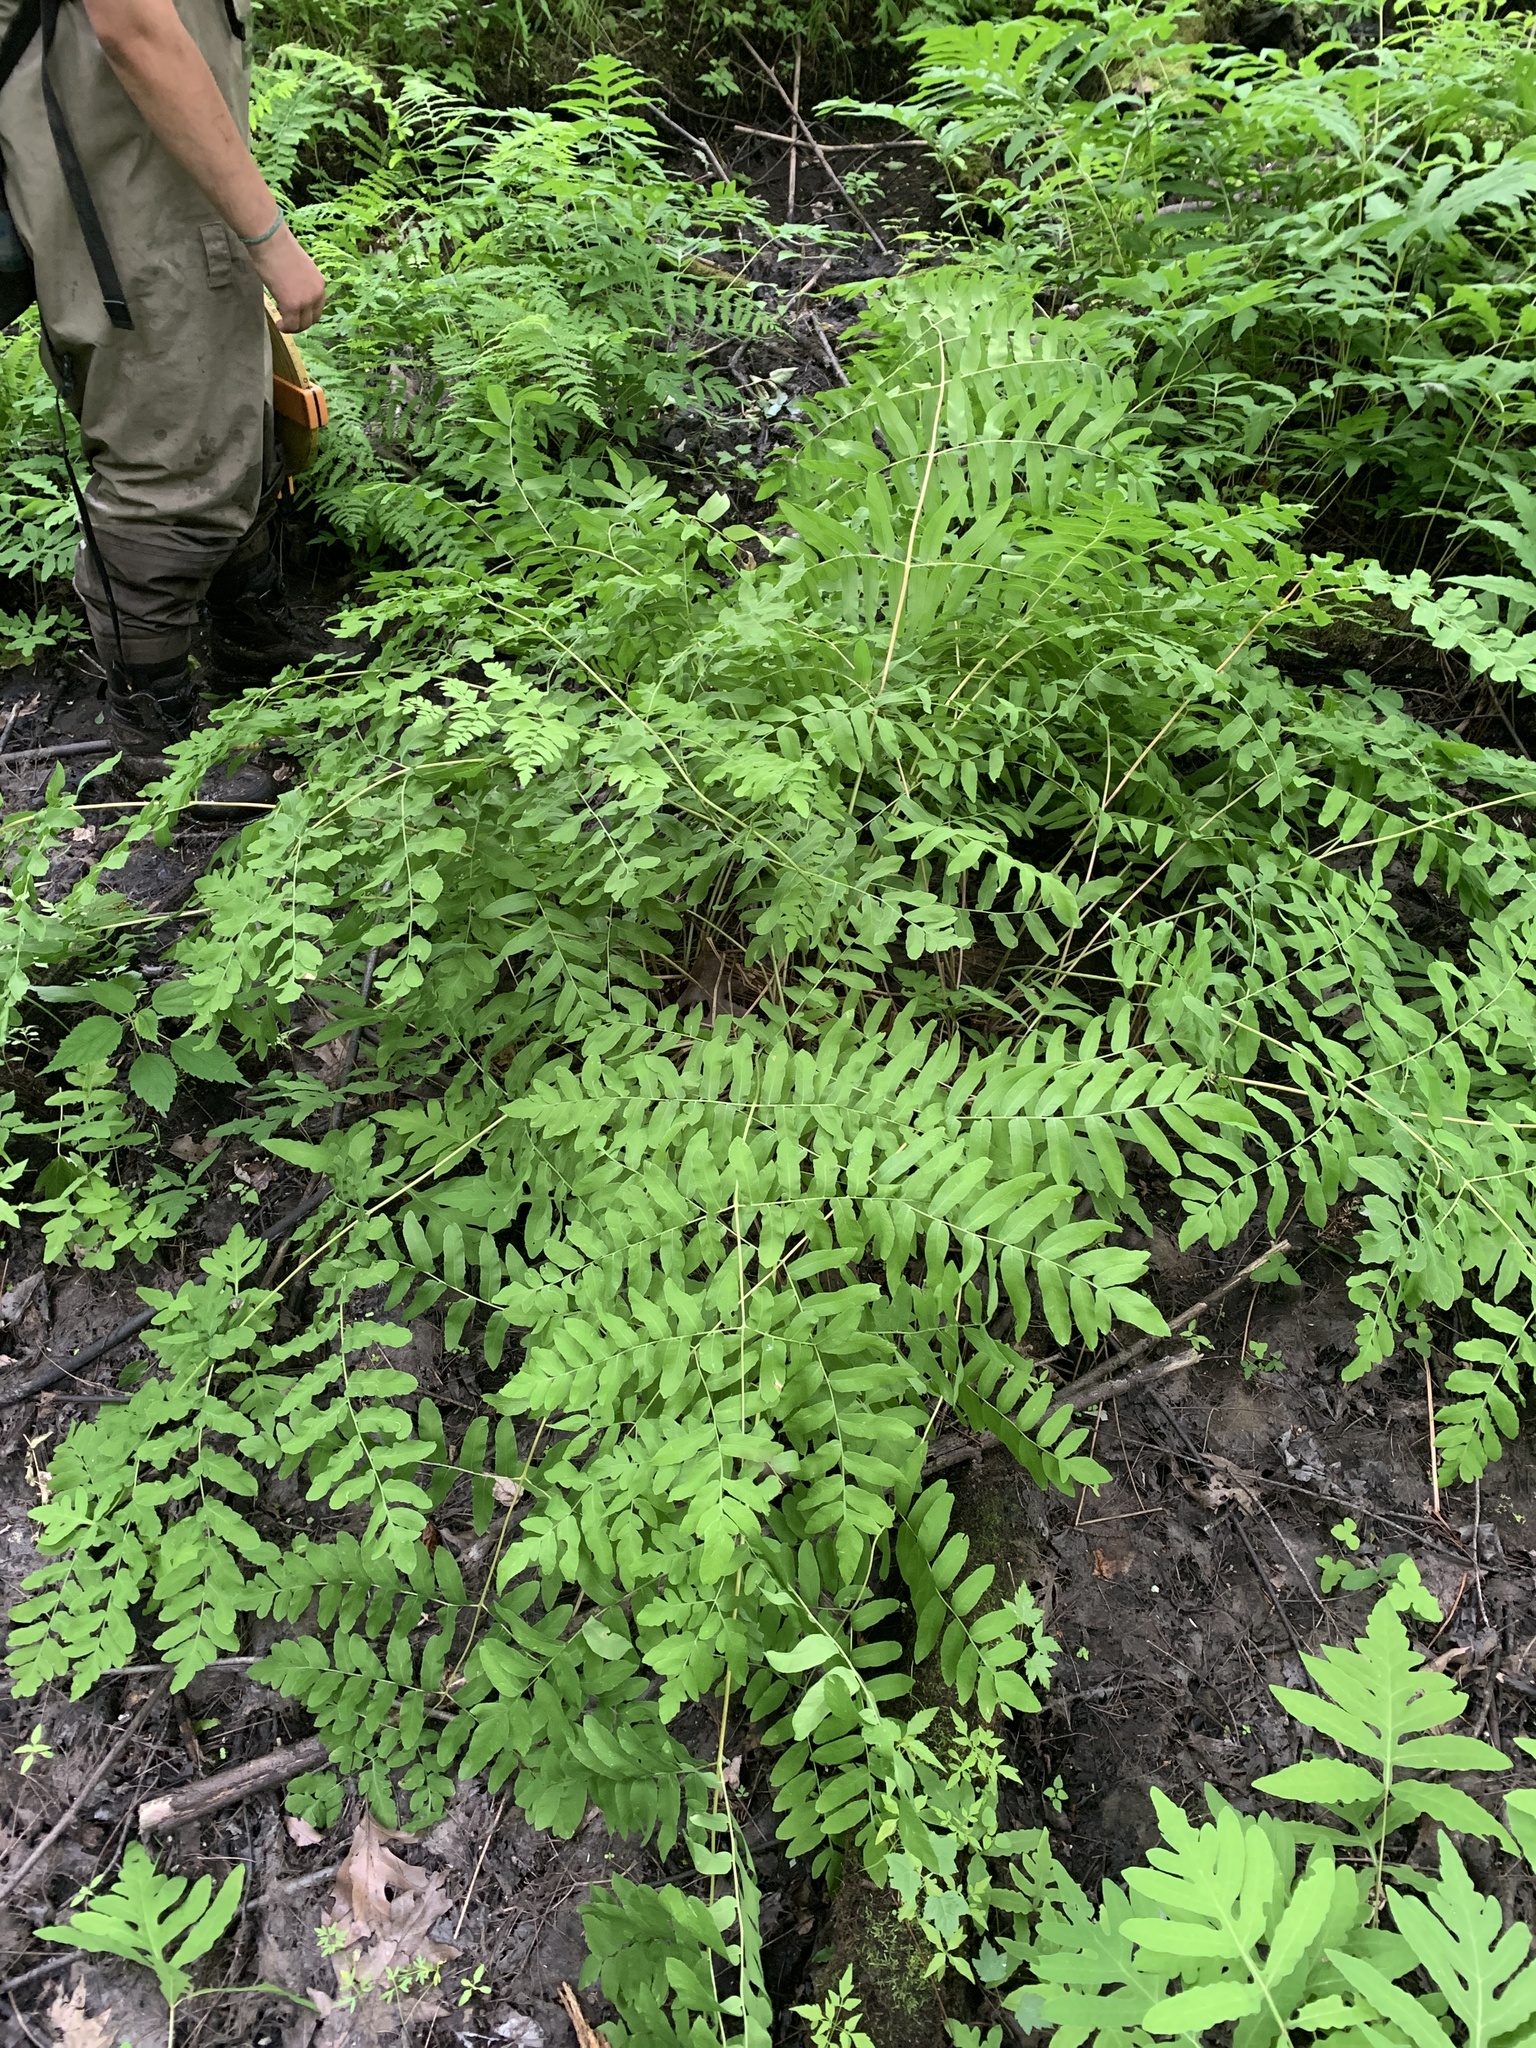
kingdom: Plantae
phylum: Tracheophyta
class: Polypodiopsida
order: Osmundales
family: Osmundaceae
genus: Osmunda
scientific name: Osmunda spectabilis
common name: American royal fern
